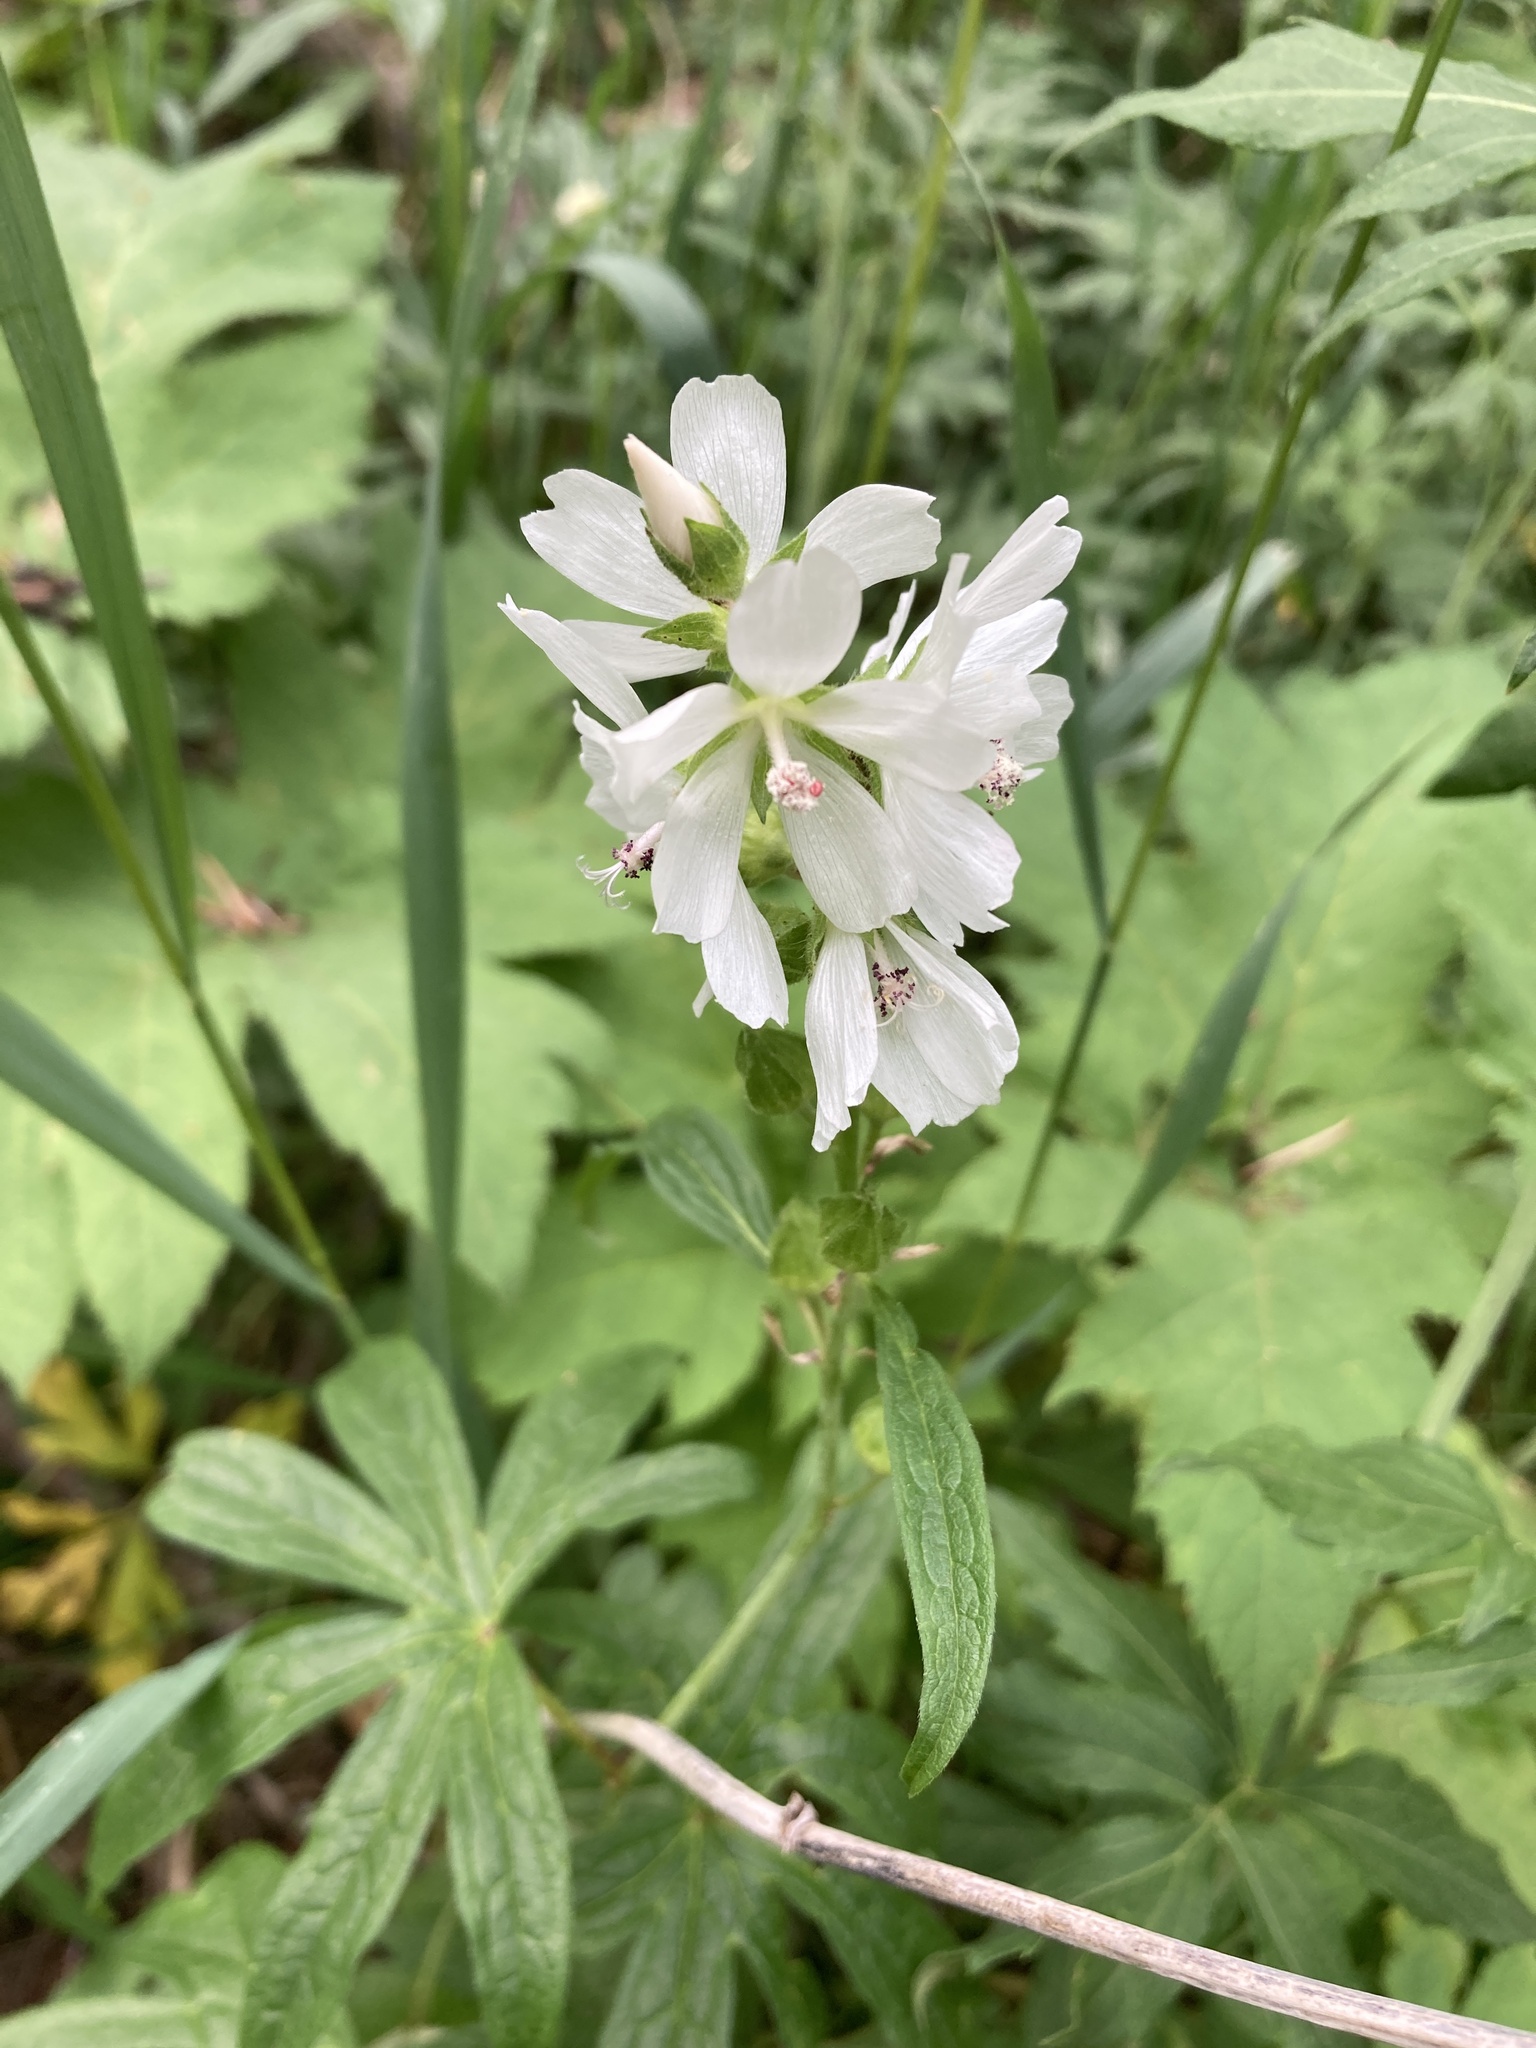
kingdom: Plantae
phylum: Tracheophyta
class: Magnoliopsida
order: Malvales
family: Malvaceae
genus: Sidalcea
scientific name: Sidalcea candida
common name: Prairie-mallow
